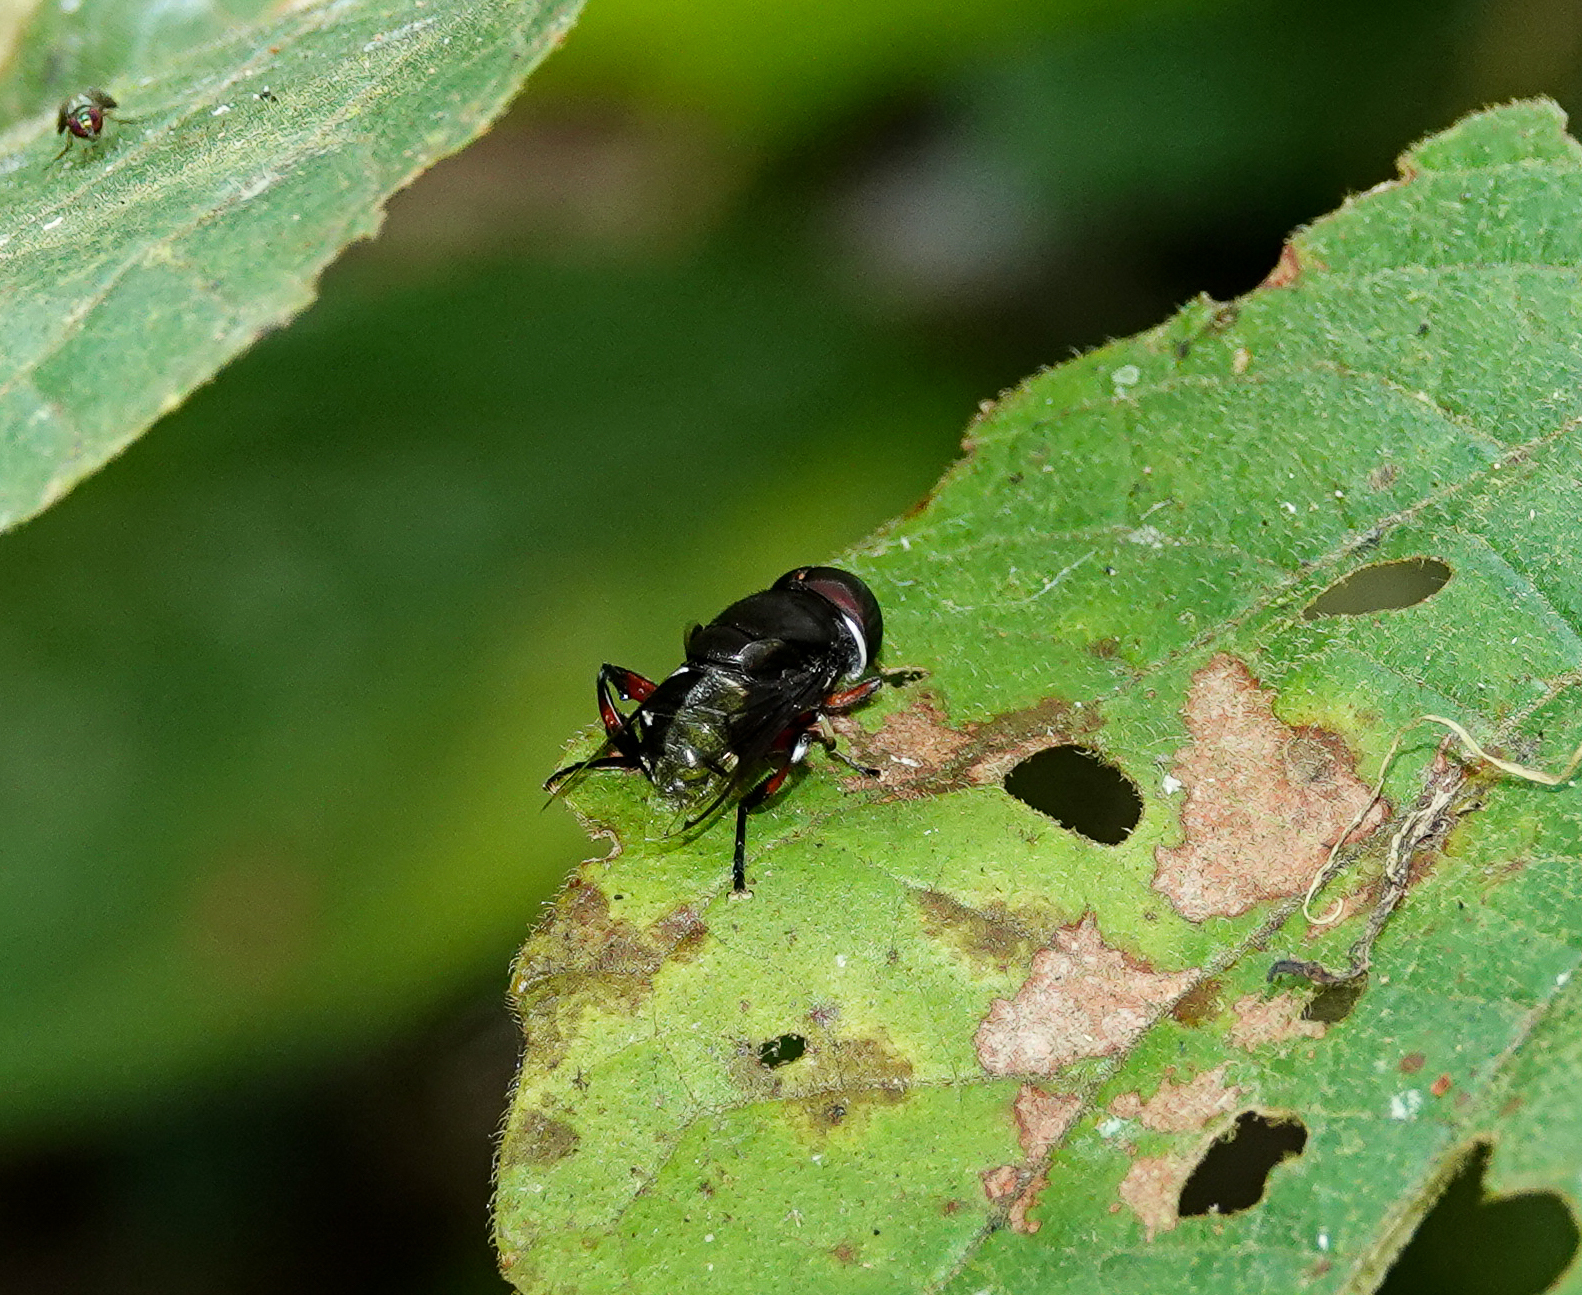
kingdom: Animalia
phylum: Arthropoda
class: Insecta
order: Diptera
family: Syrphidae
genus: Phytomia
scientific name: Phytomia crassa
